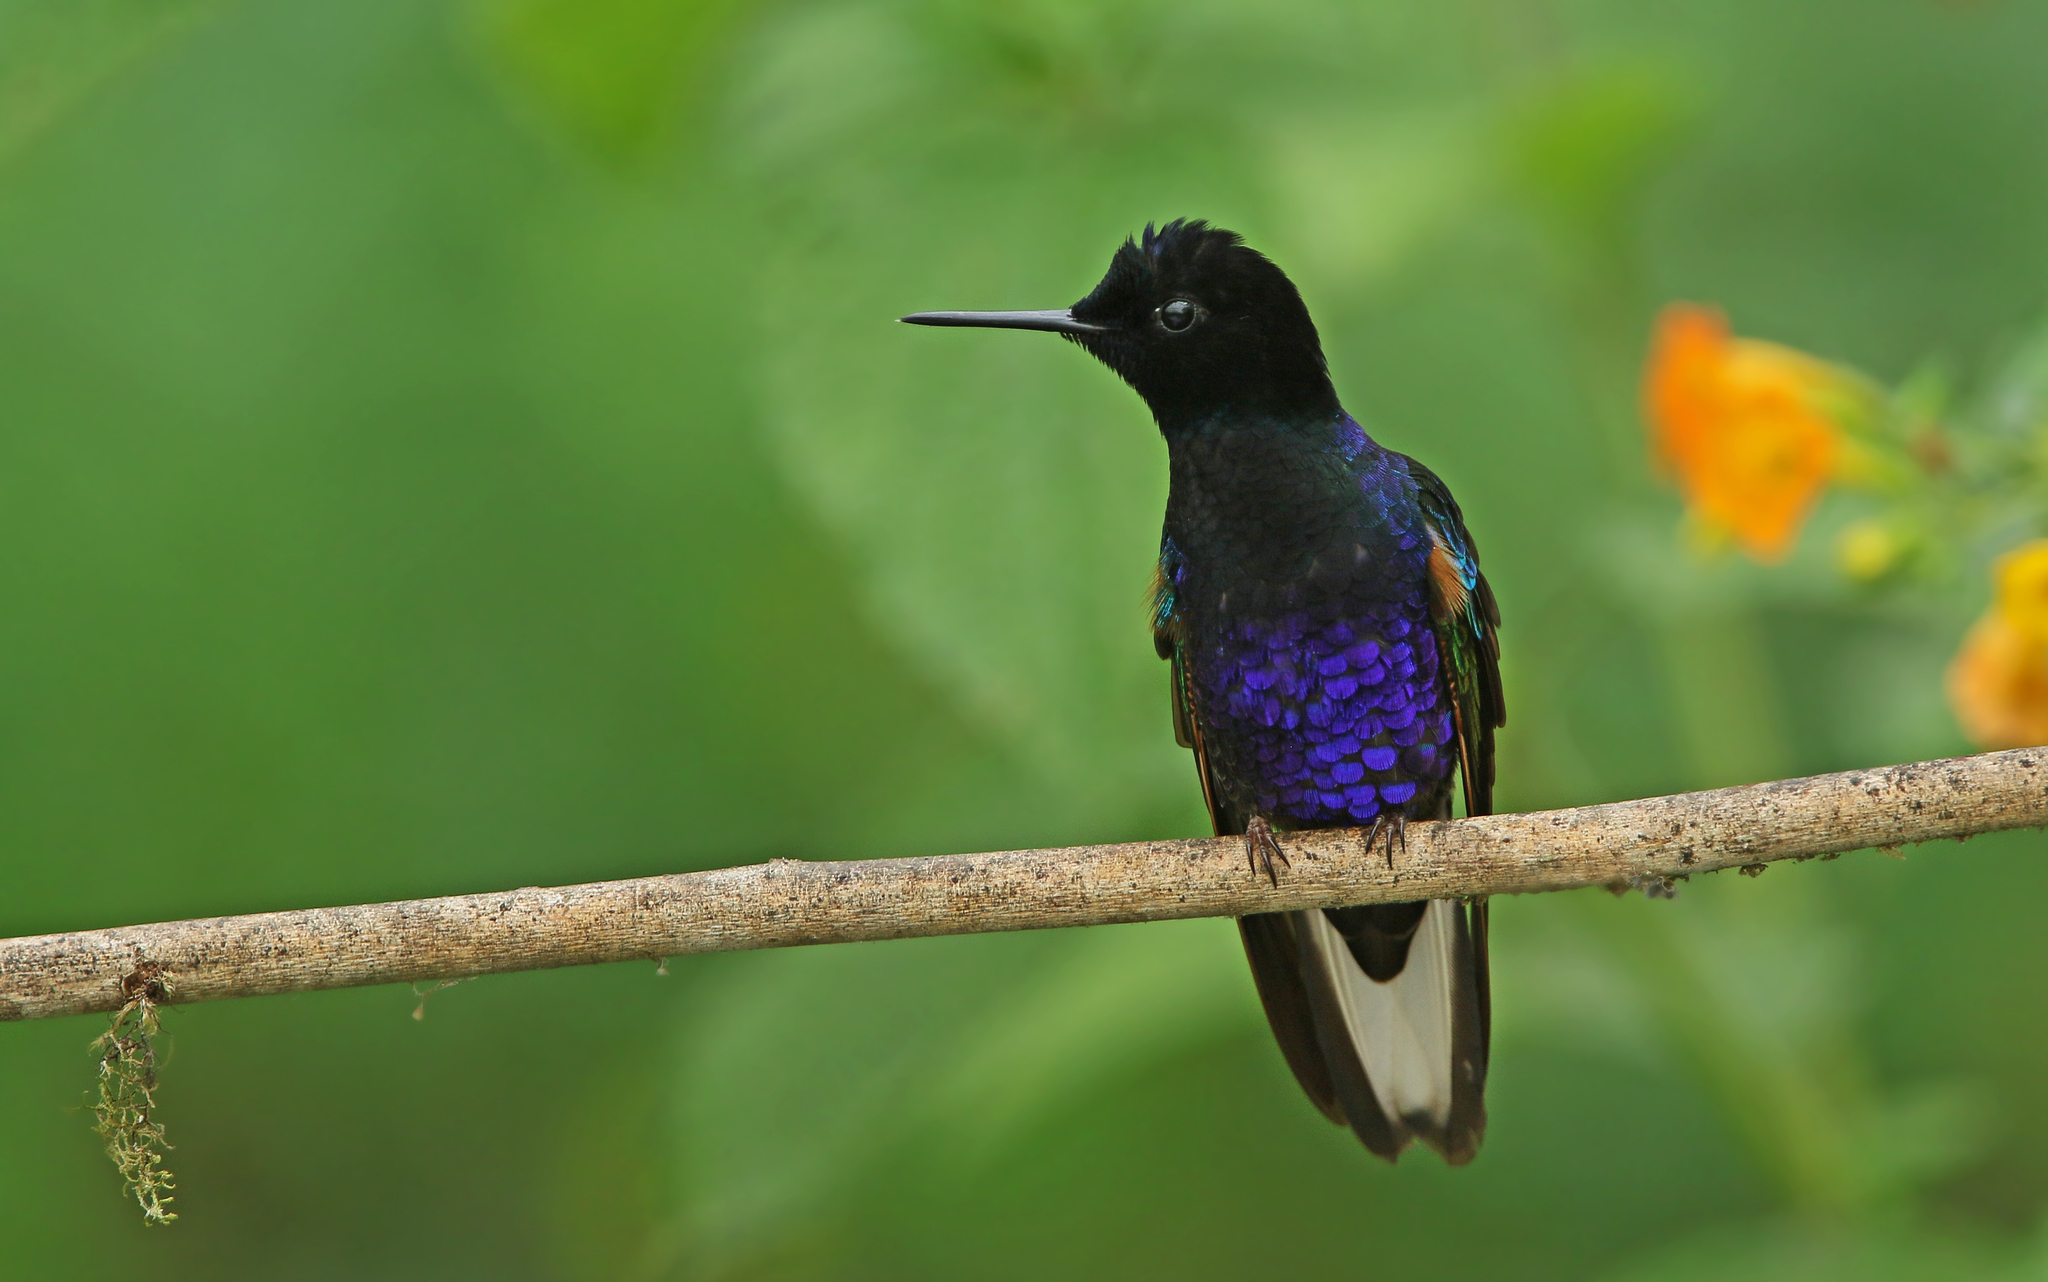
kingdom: Animalia
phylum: Chordata
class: Aves
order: Apodiformes
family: Trochilidae
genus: Boissonneaua
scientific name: Boissonneaua jardini
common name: Velvet-purple coronet
